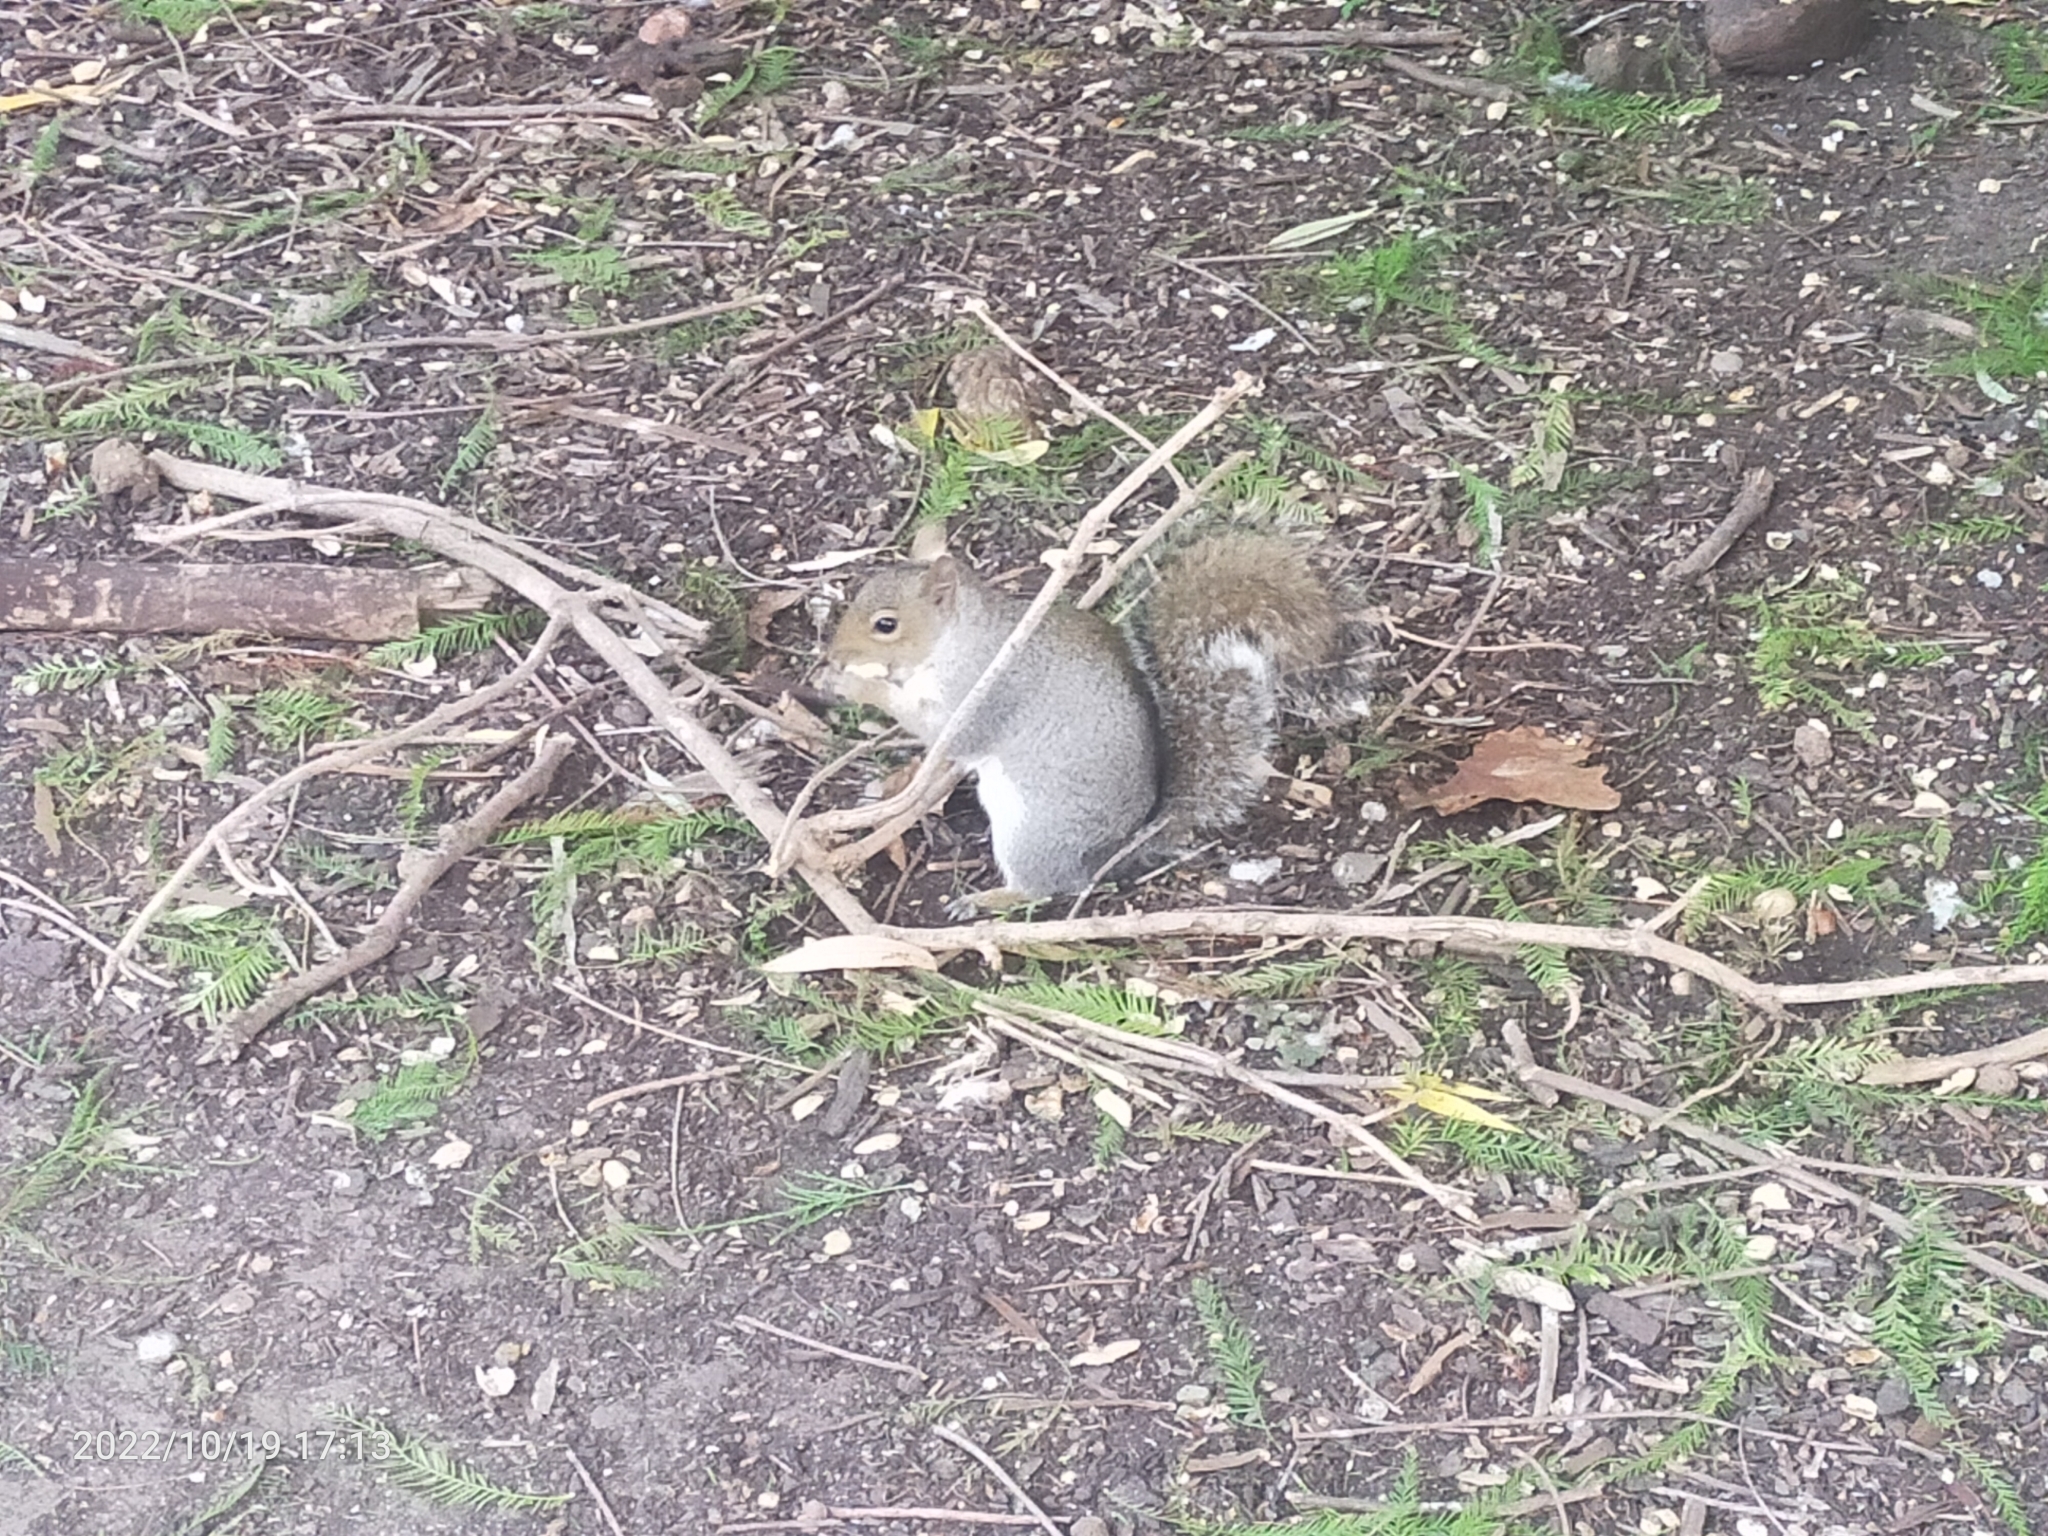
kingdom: Animalia
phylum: Chordata
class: Mammalia
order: Rodentia
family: Sciuridae
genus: Sciurus
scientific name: Sciurus carolinensis
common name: Eastern gray squirrel
